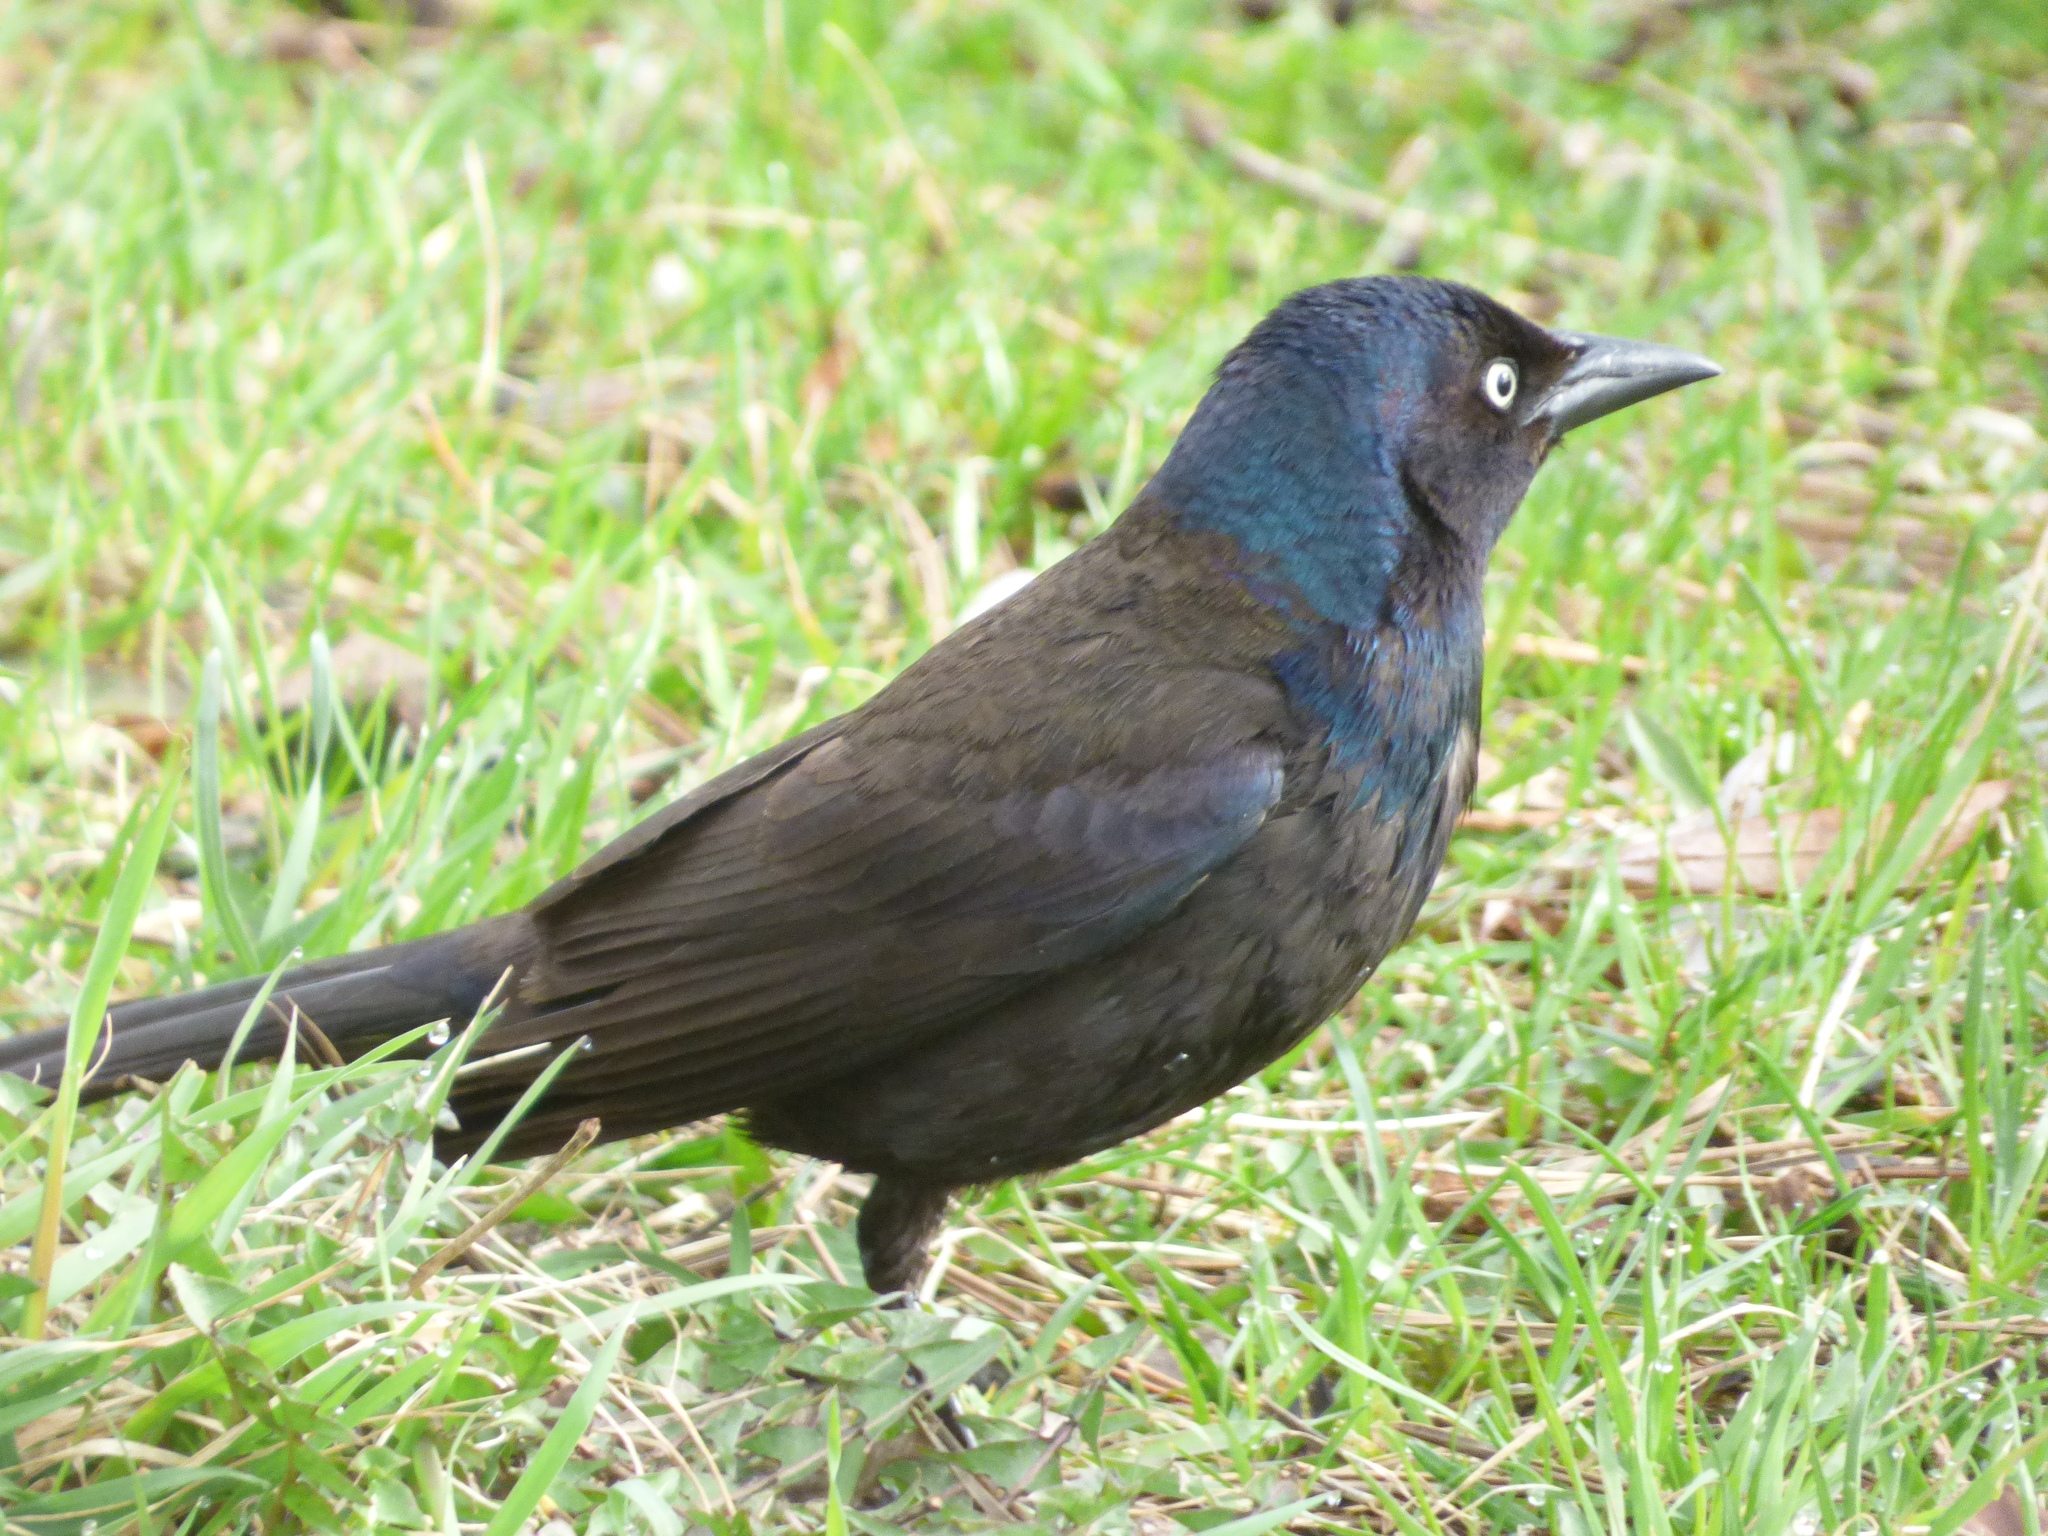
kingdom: Animalia
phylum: Chordata
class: Aves
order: Passeriformes
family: Icteridae
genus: Quiscalus
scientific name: Quiscalus quiscula
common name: Common grackle
